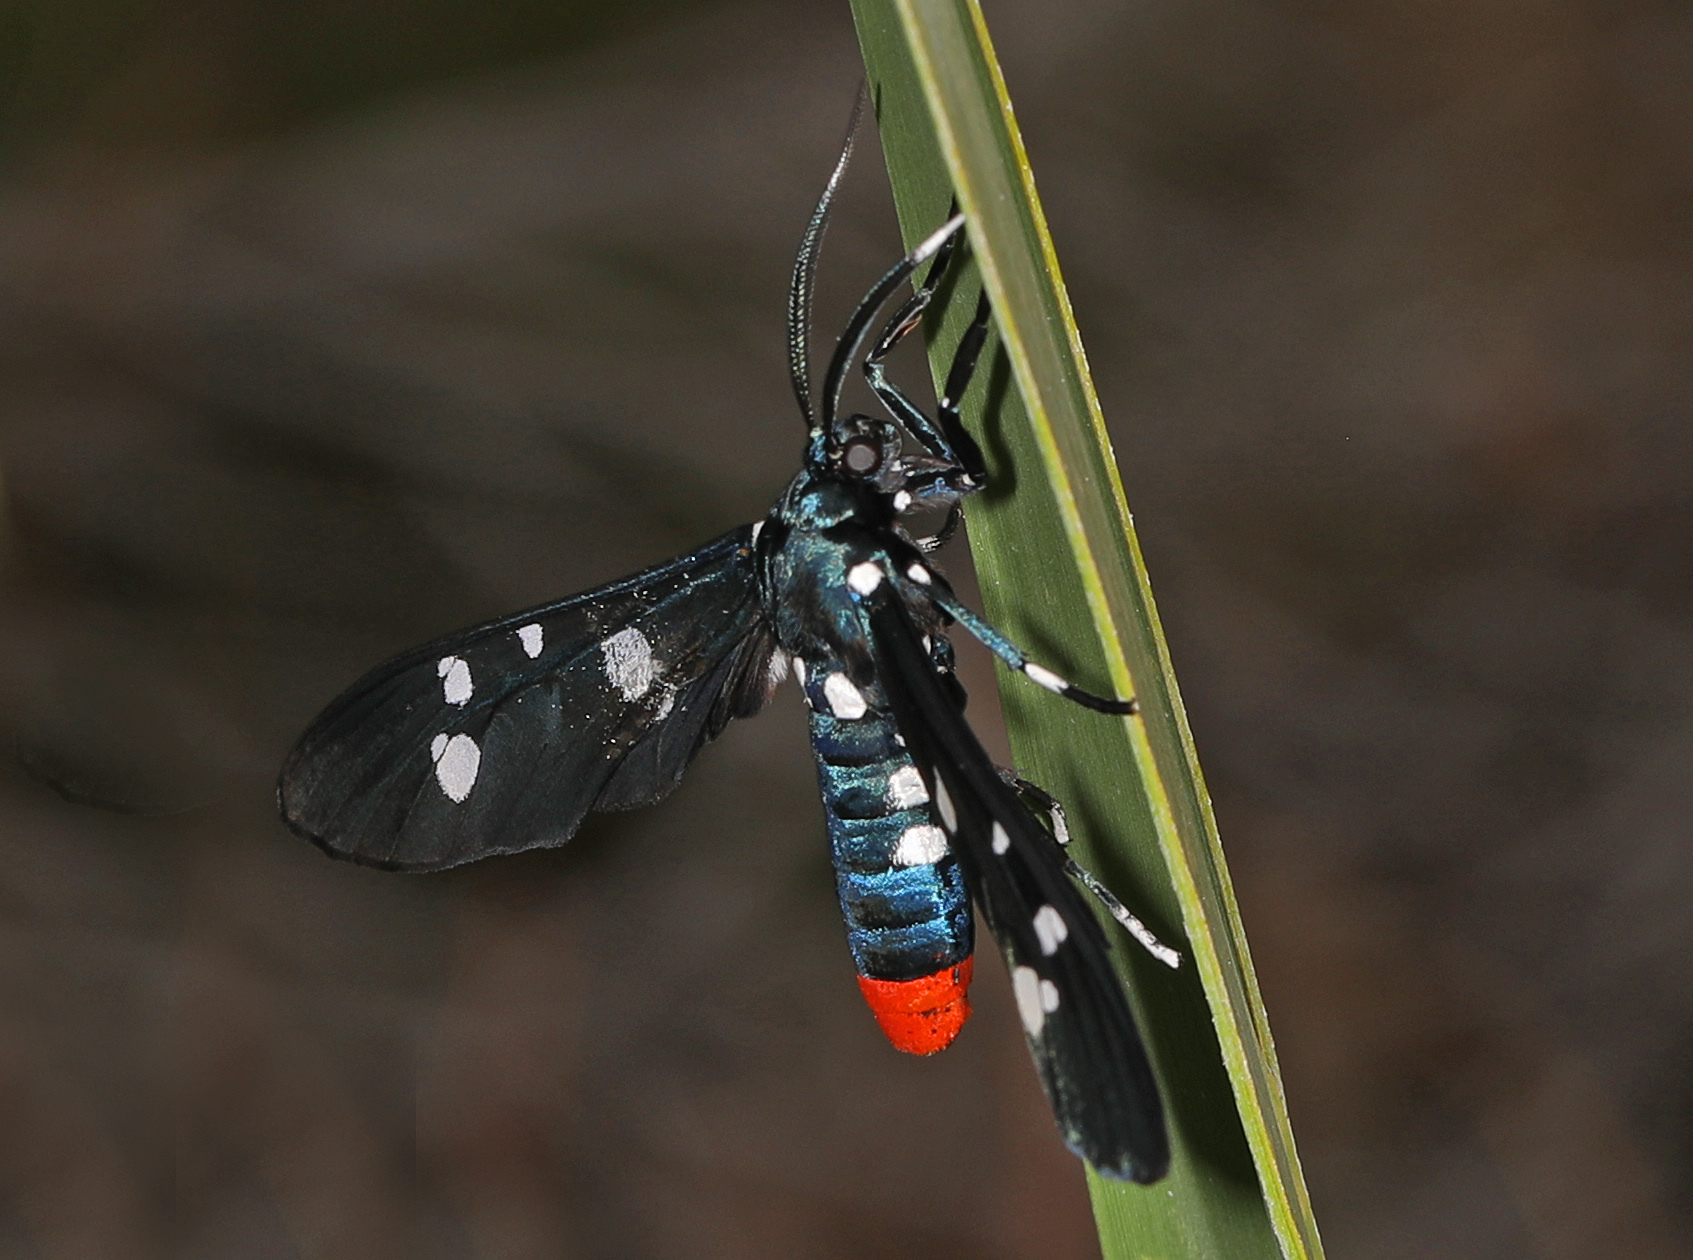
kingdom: Animalia
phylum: Arthropoda
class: Insecta
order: Lepidoptera
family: Erebidae
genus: Syntomeida
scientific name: Syntomeida epilais
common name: Polka-dot wasp moth
